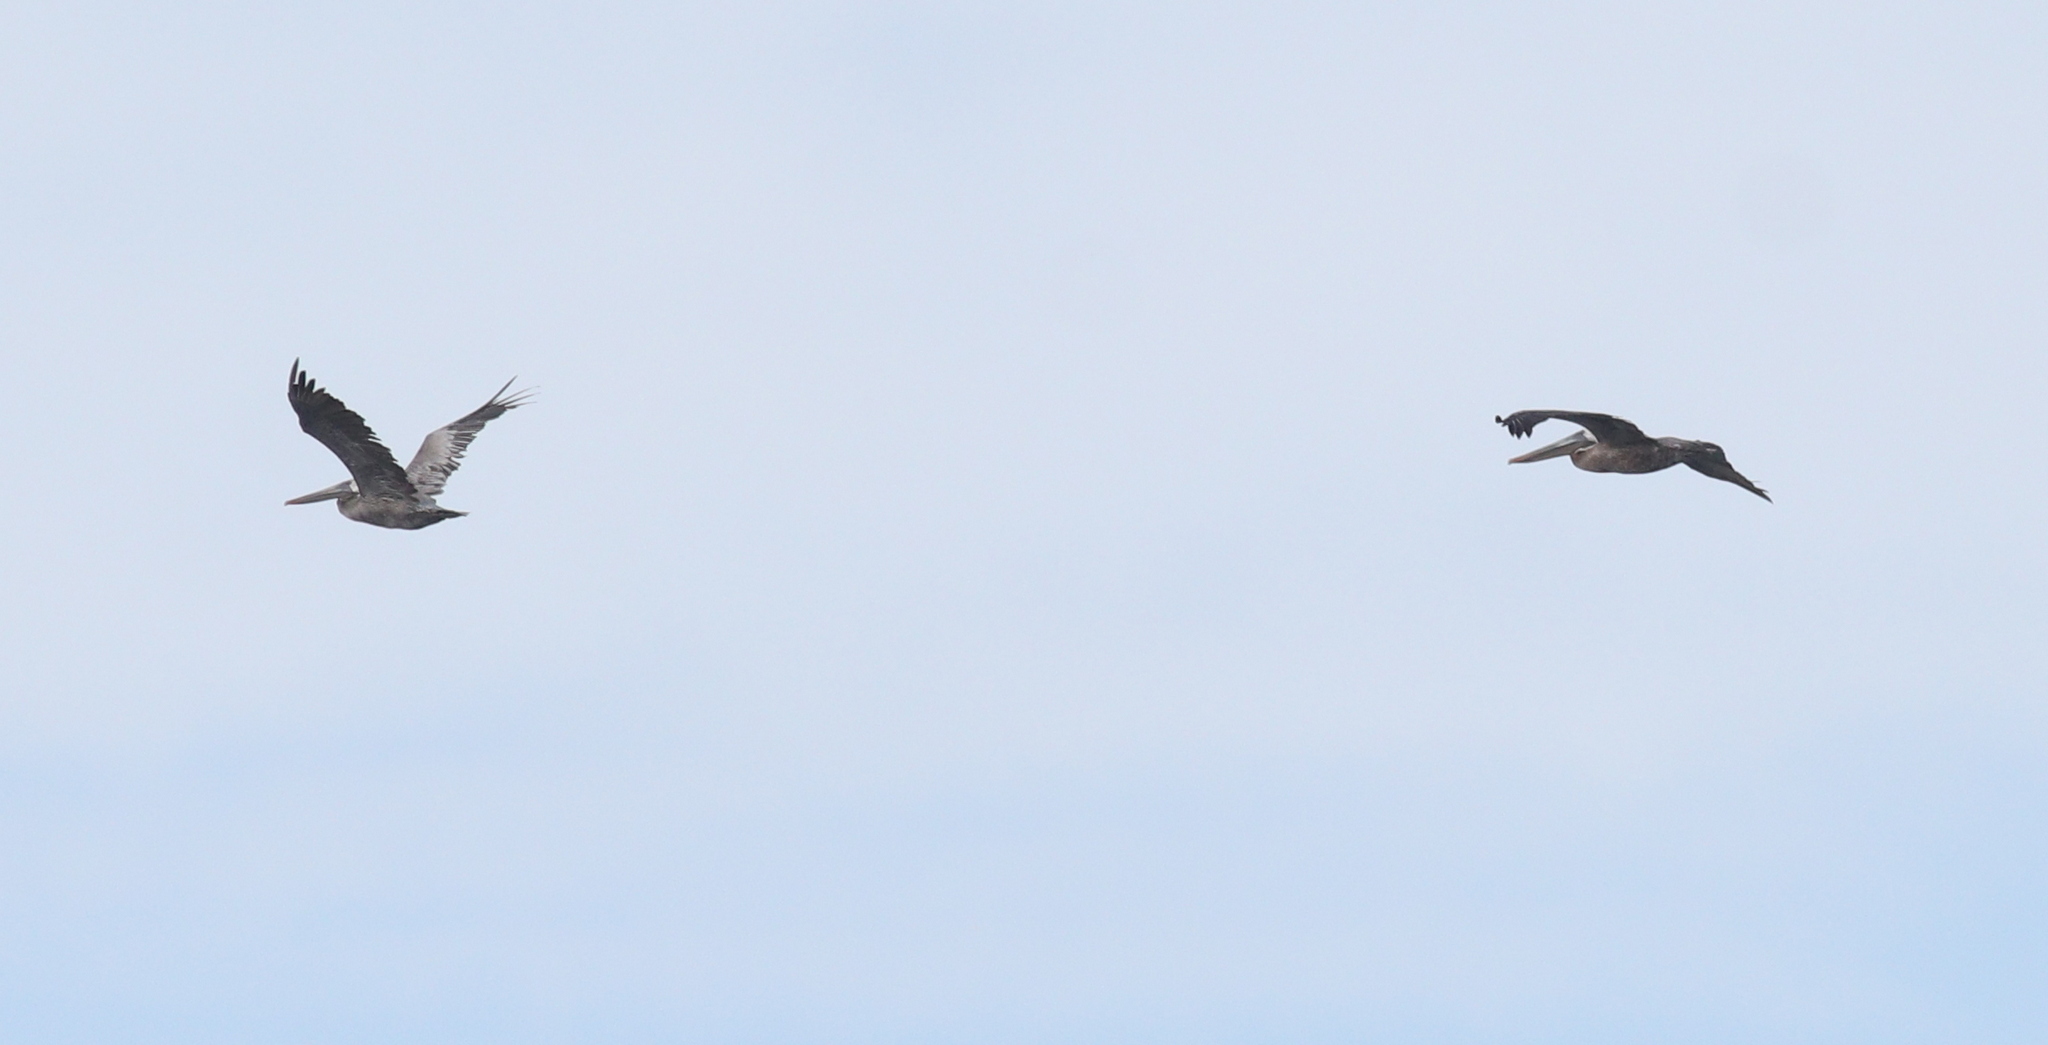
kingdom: Animalia
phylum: Chordata
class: Aves
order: Pelecaniformes
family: Pelecanidae
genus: Pelecanus
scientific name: Pelecanus occidentalis
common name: Brown pelican
